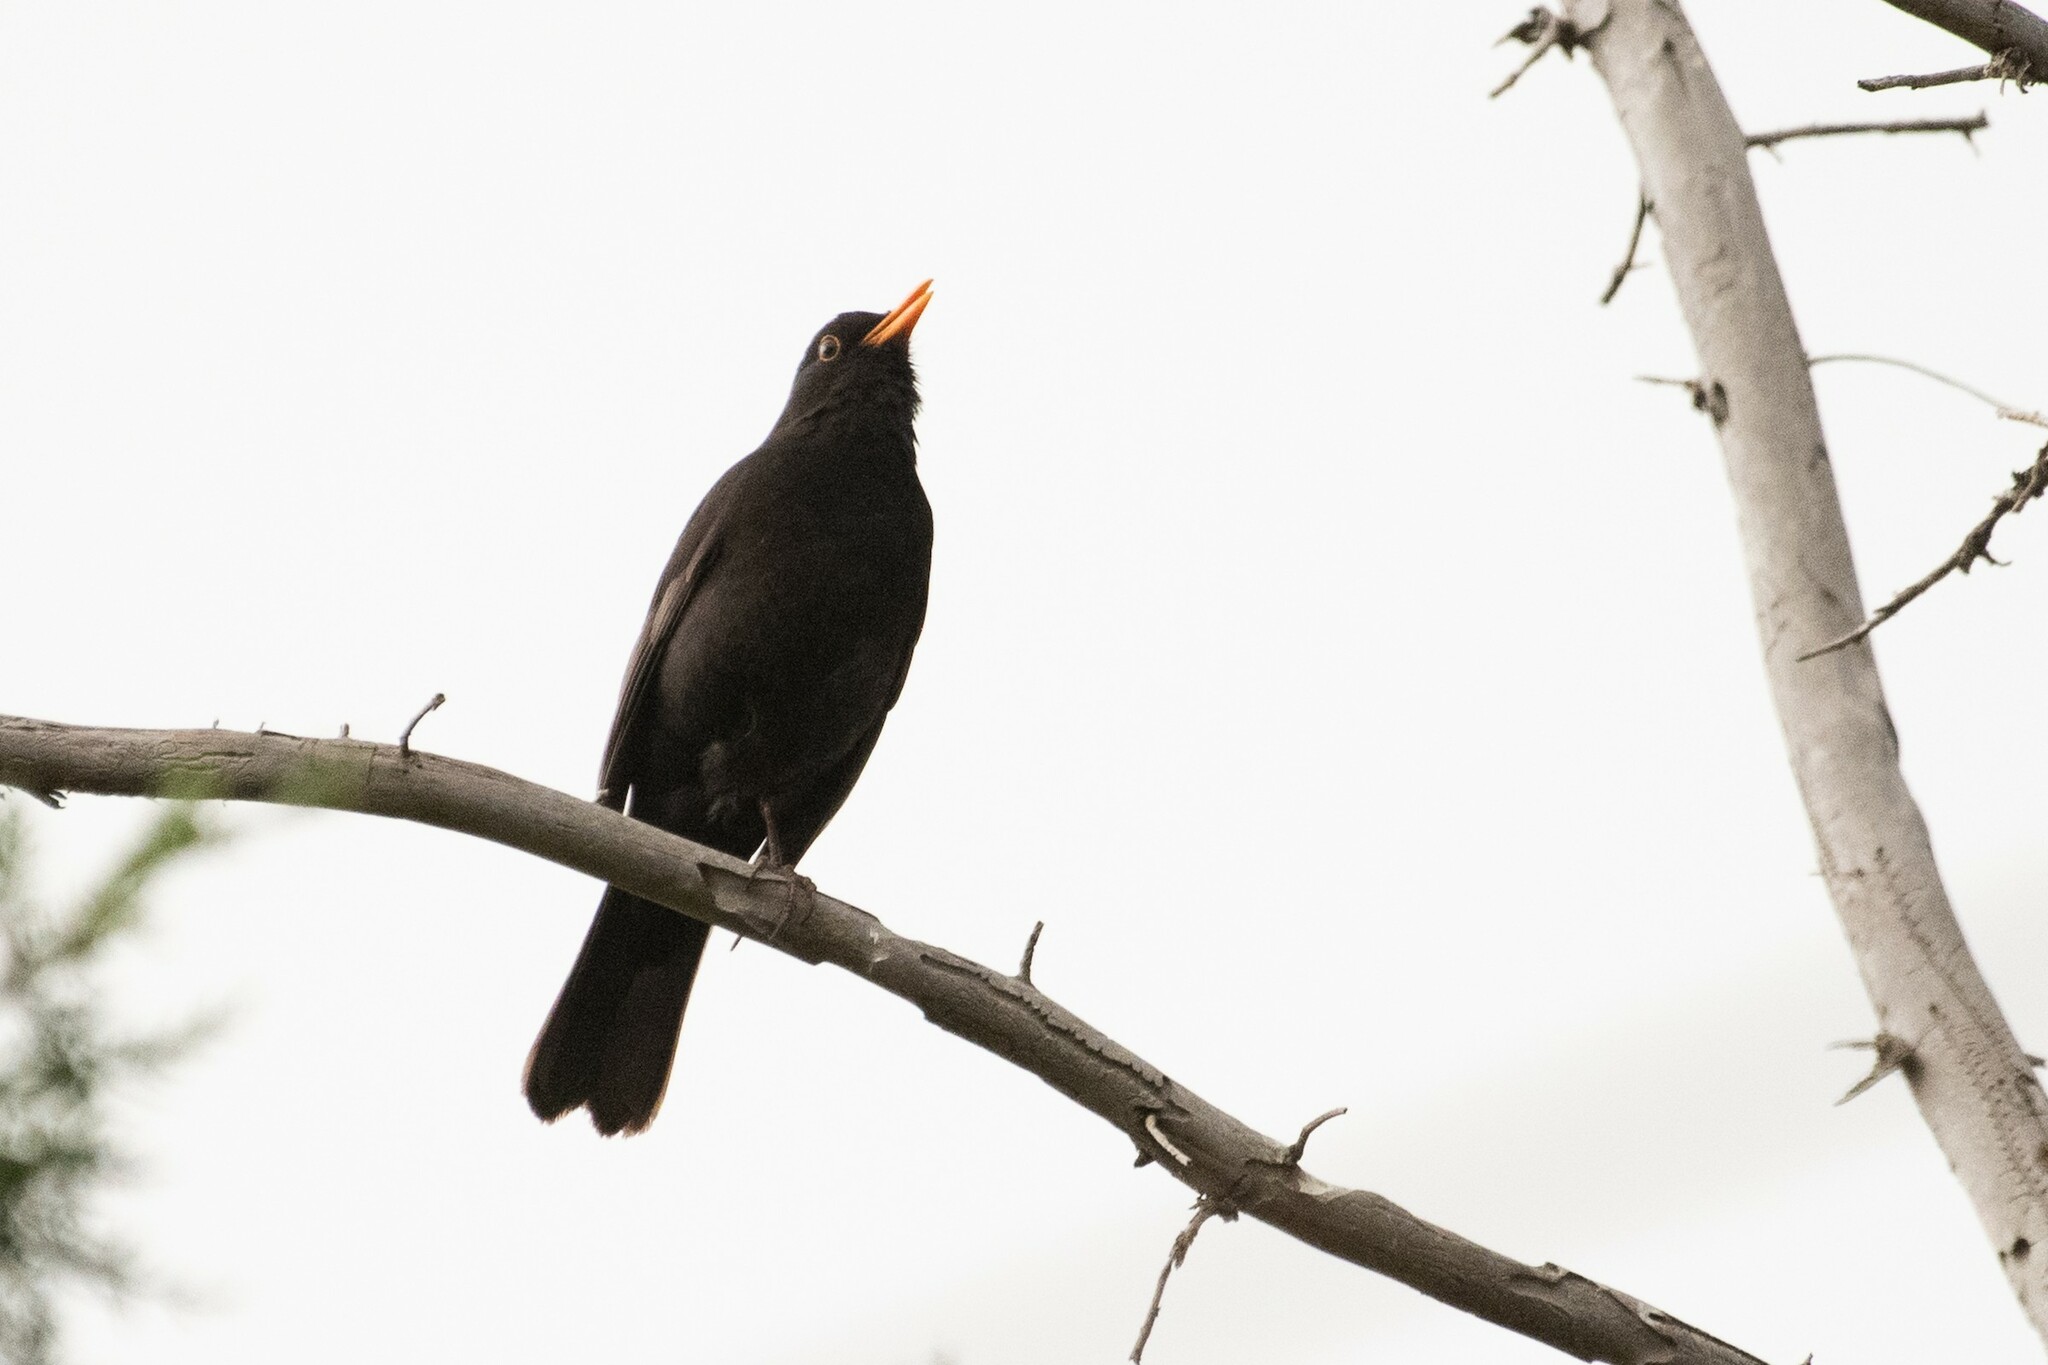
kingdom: Animalia
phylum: Chordata
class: Aves
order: Passeriformes
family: Turdidae
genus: Turdus
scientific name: Turdus merula
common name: Common blackbird
